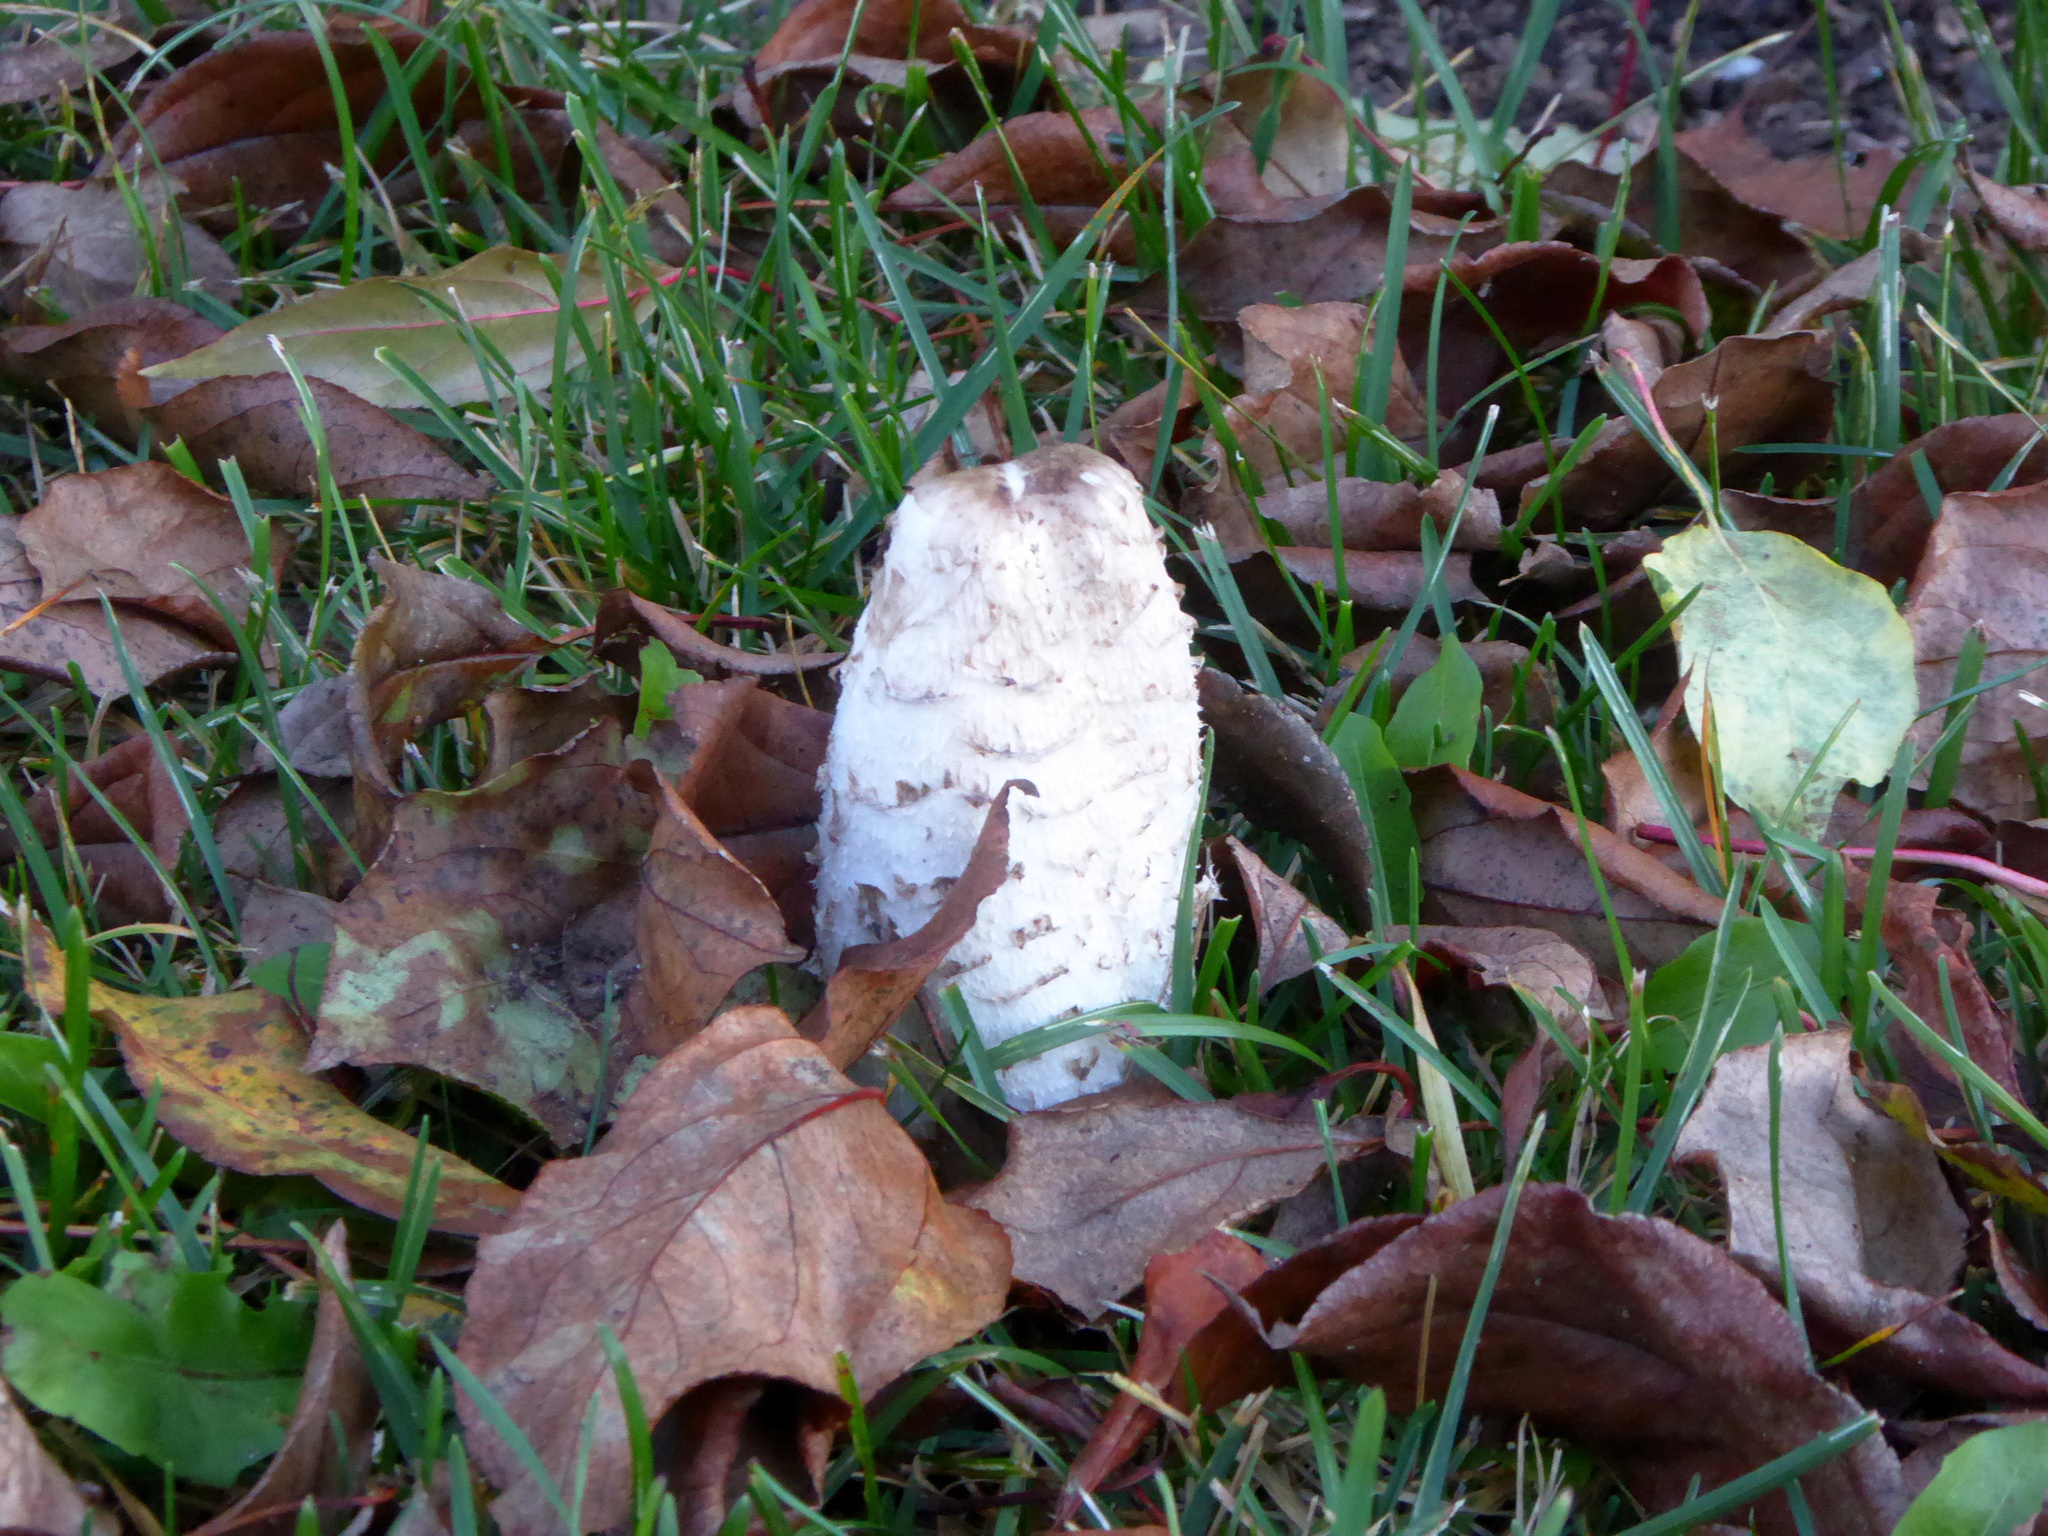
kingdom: Fungi
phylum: Basidiomycota
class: Agaricomycetes
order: Agaricales
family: Agaricaceae
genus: Coprinus
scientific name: Coprinus comatus
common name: Lawyer's wig
